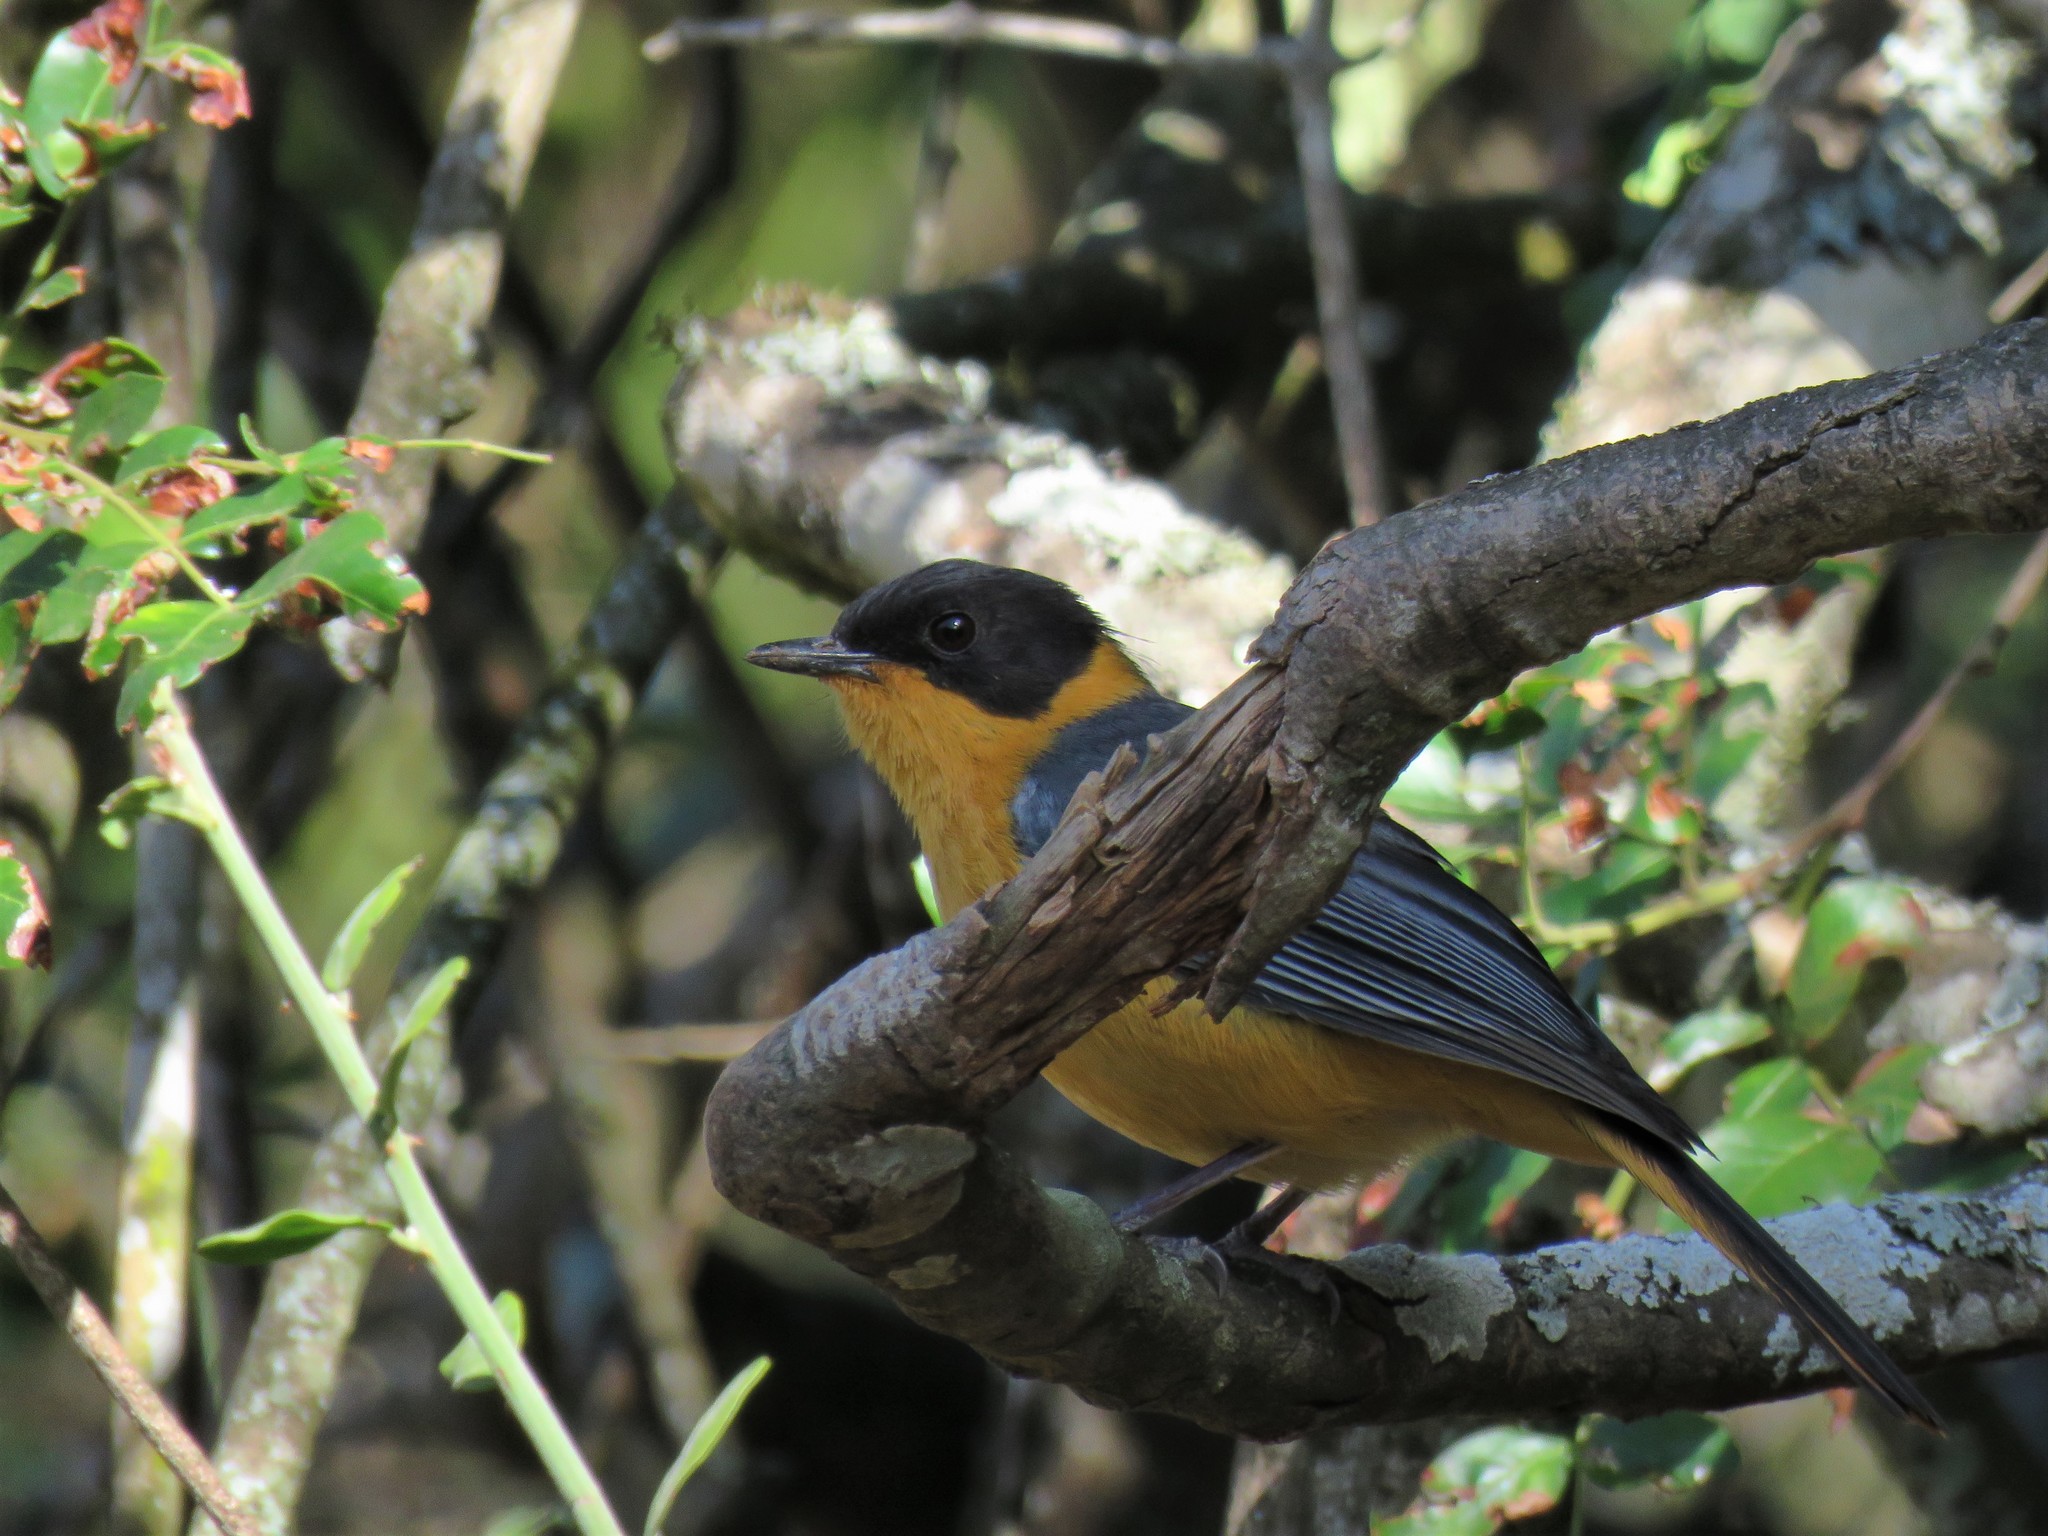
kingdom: Animalia
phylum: Chordata
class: Aves
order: Passeriformes
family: Muscicapidae
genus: Cossypha
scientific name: Cossypha dichroa
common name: Chorister robin-chat
